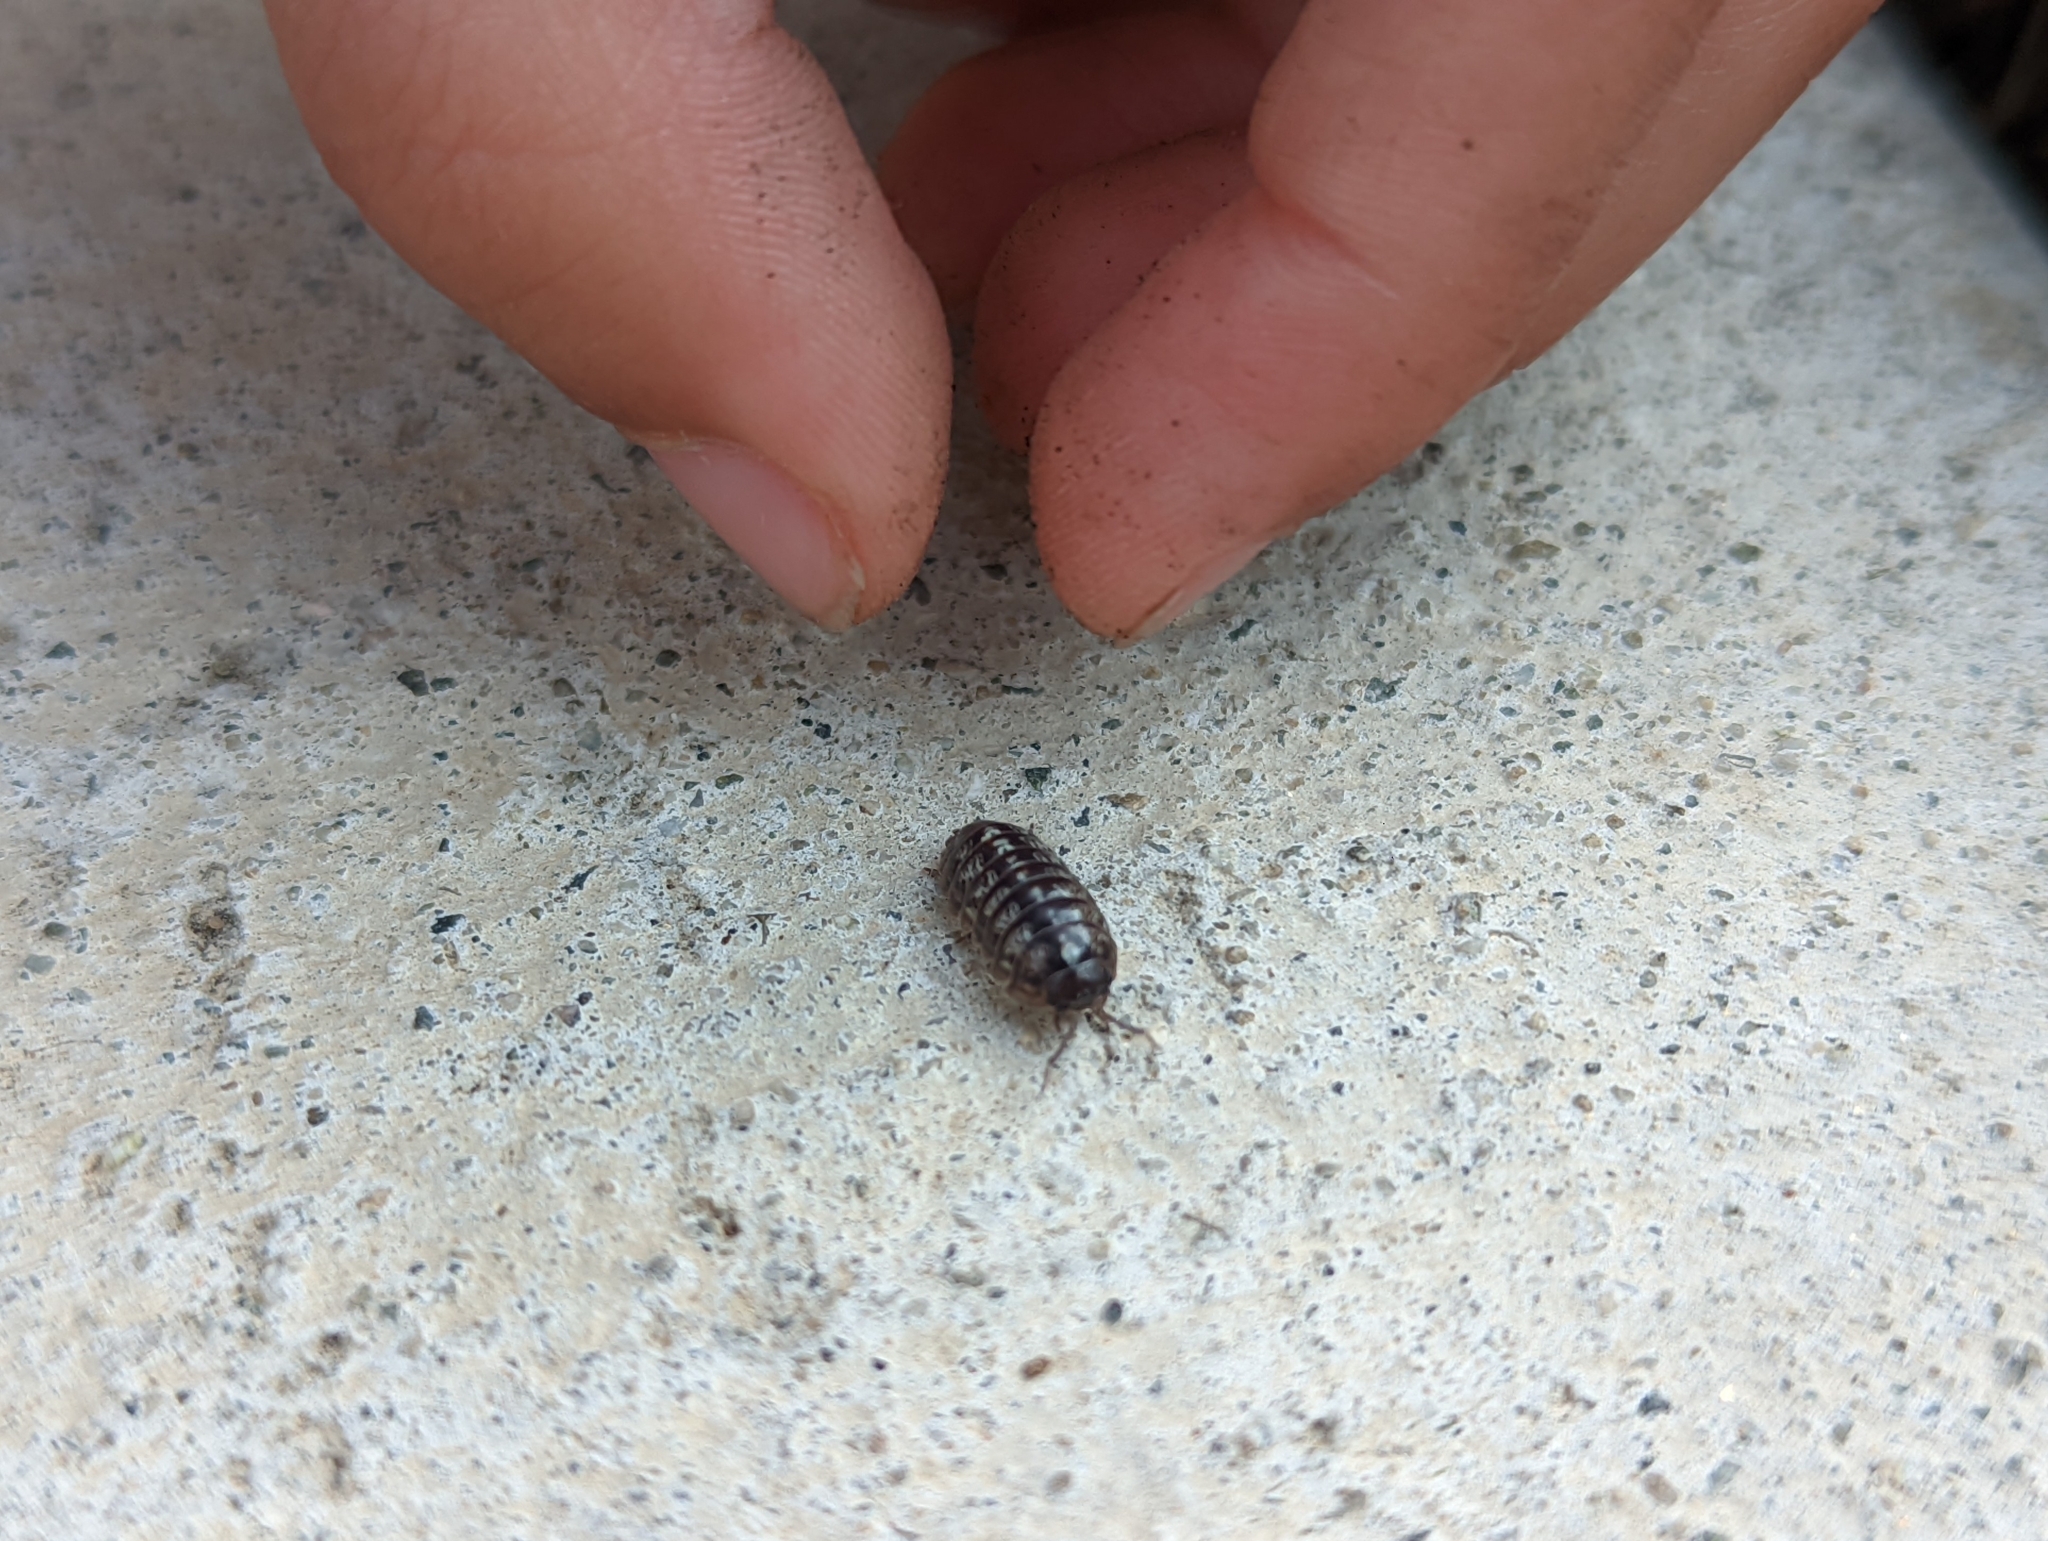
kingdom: Animalia
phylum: Arthropoda
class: Malacostraca
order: Isopoda
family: Armadillidiidae
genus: Armadillidium
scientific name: Armadillidium vulgare
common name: Common pill woodlouse
